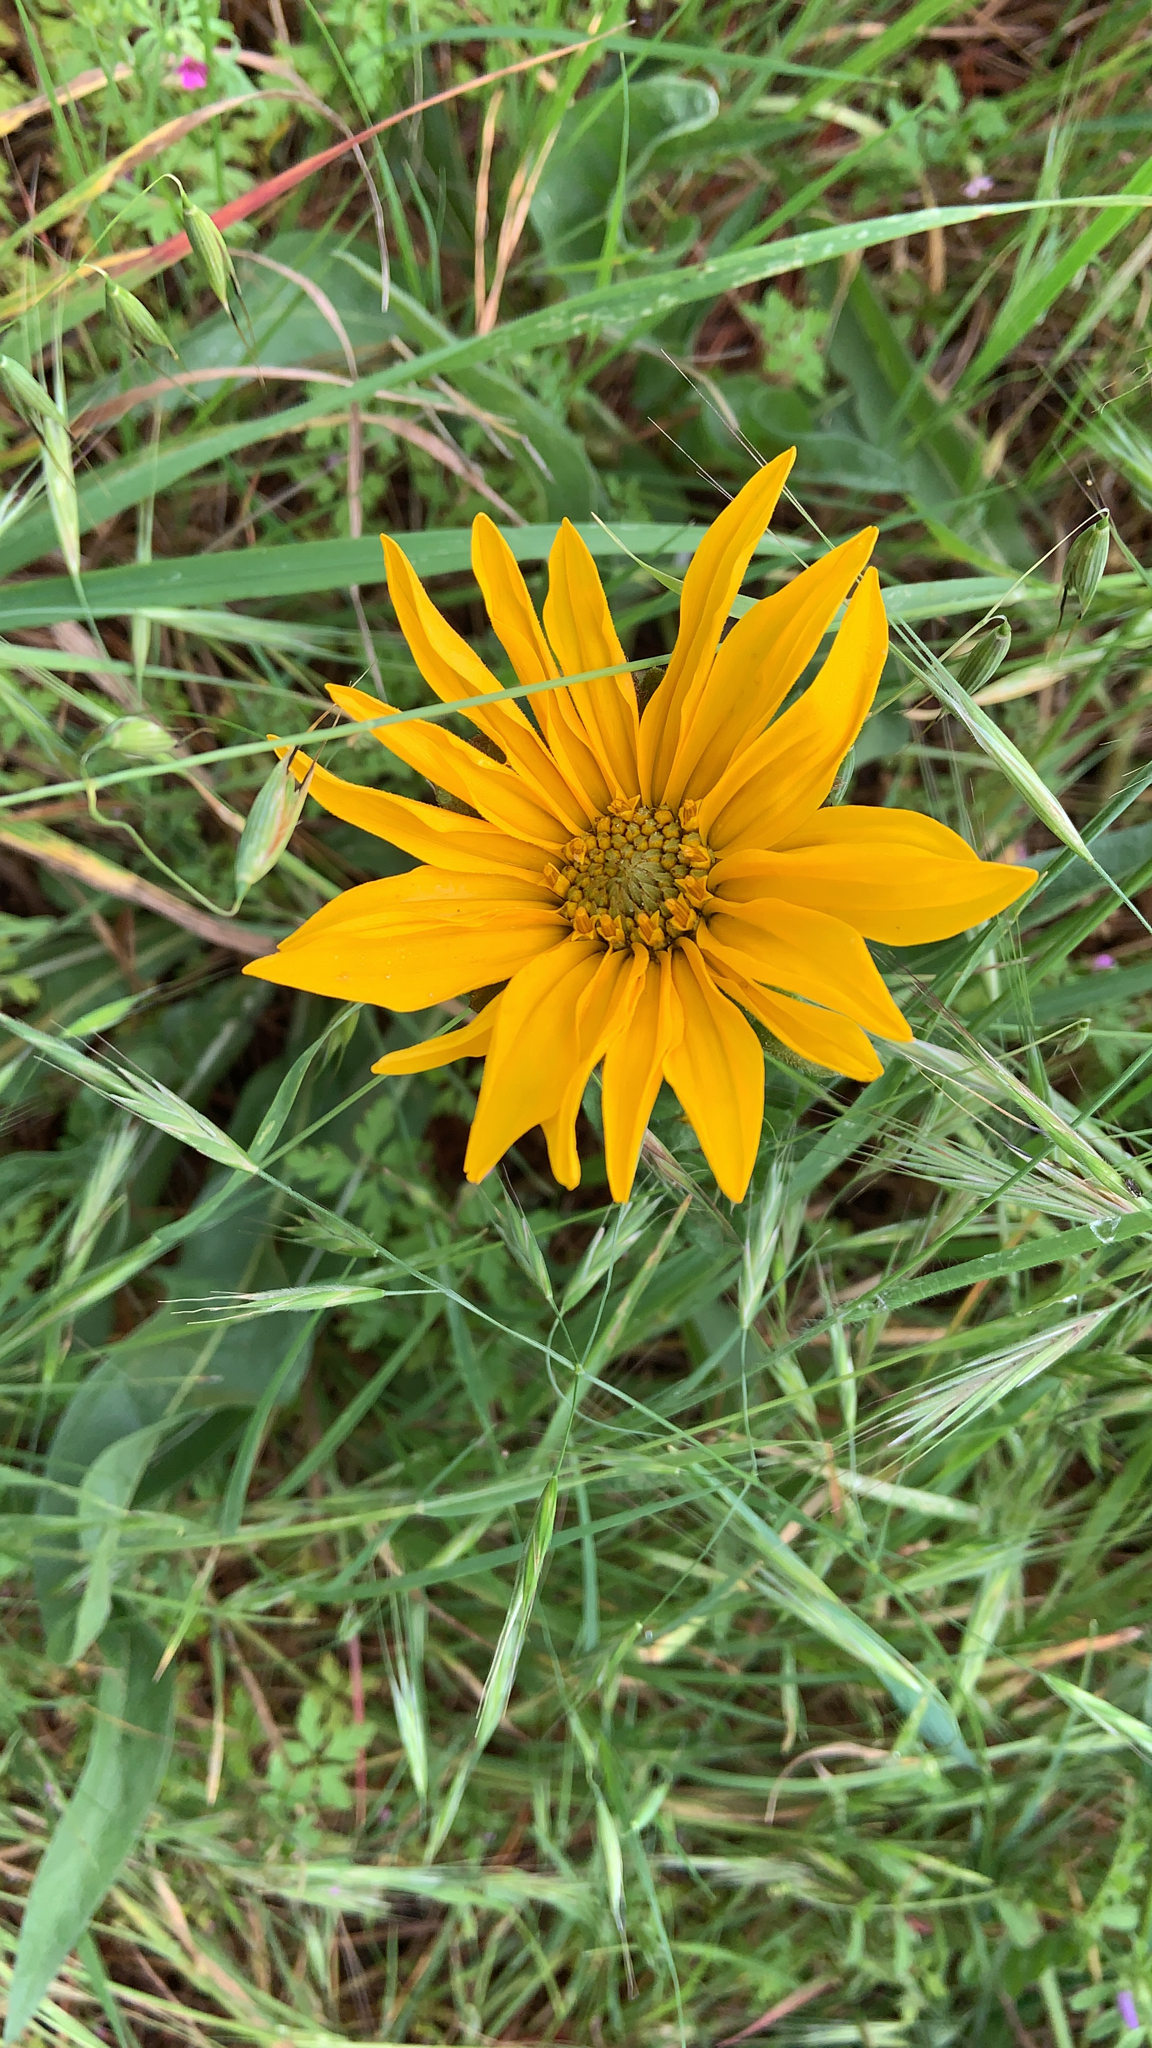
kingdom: Plantae
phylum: Tracheophyta
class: Magnoliopsida
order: Asterales
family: Asteraceae
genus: Wyethia
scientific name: Wyethia angustifolia
